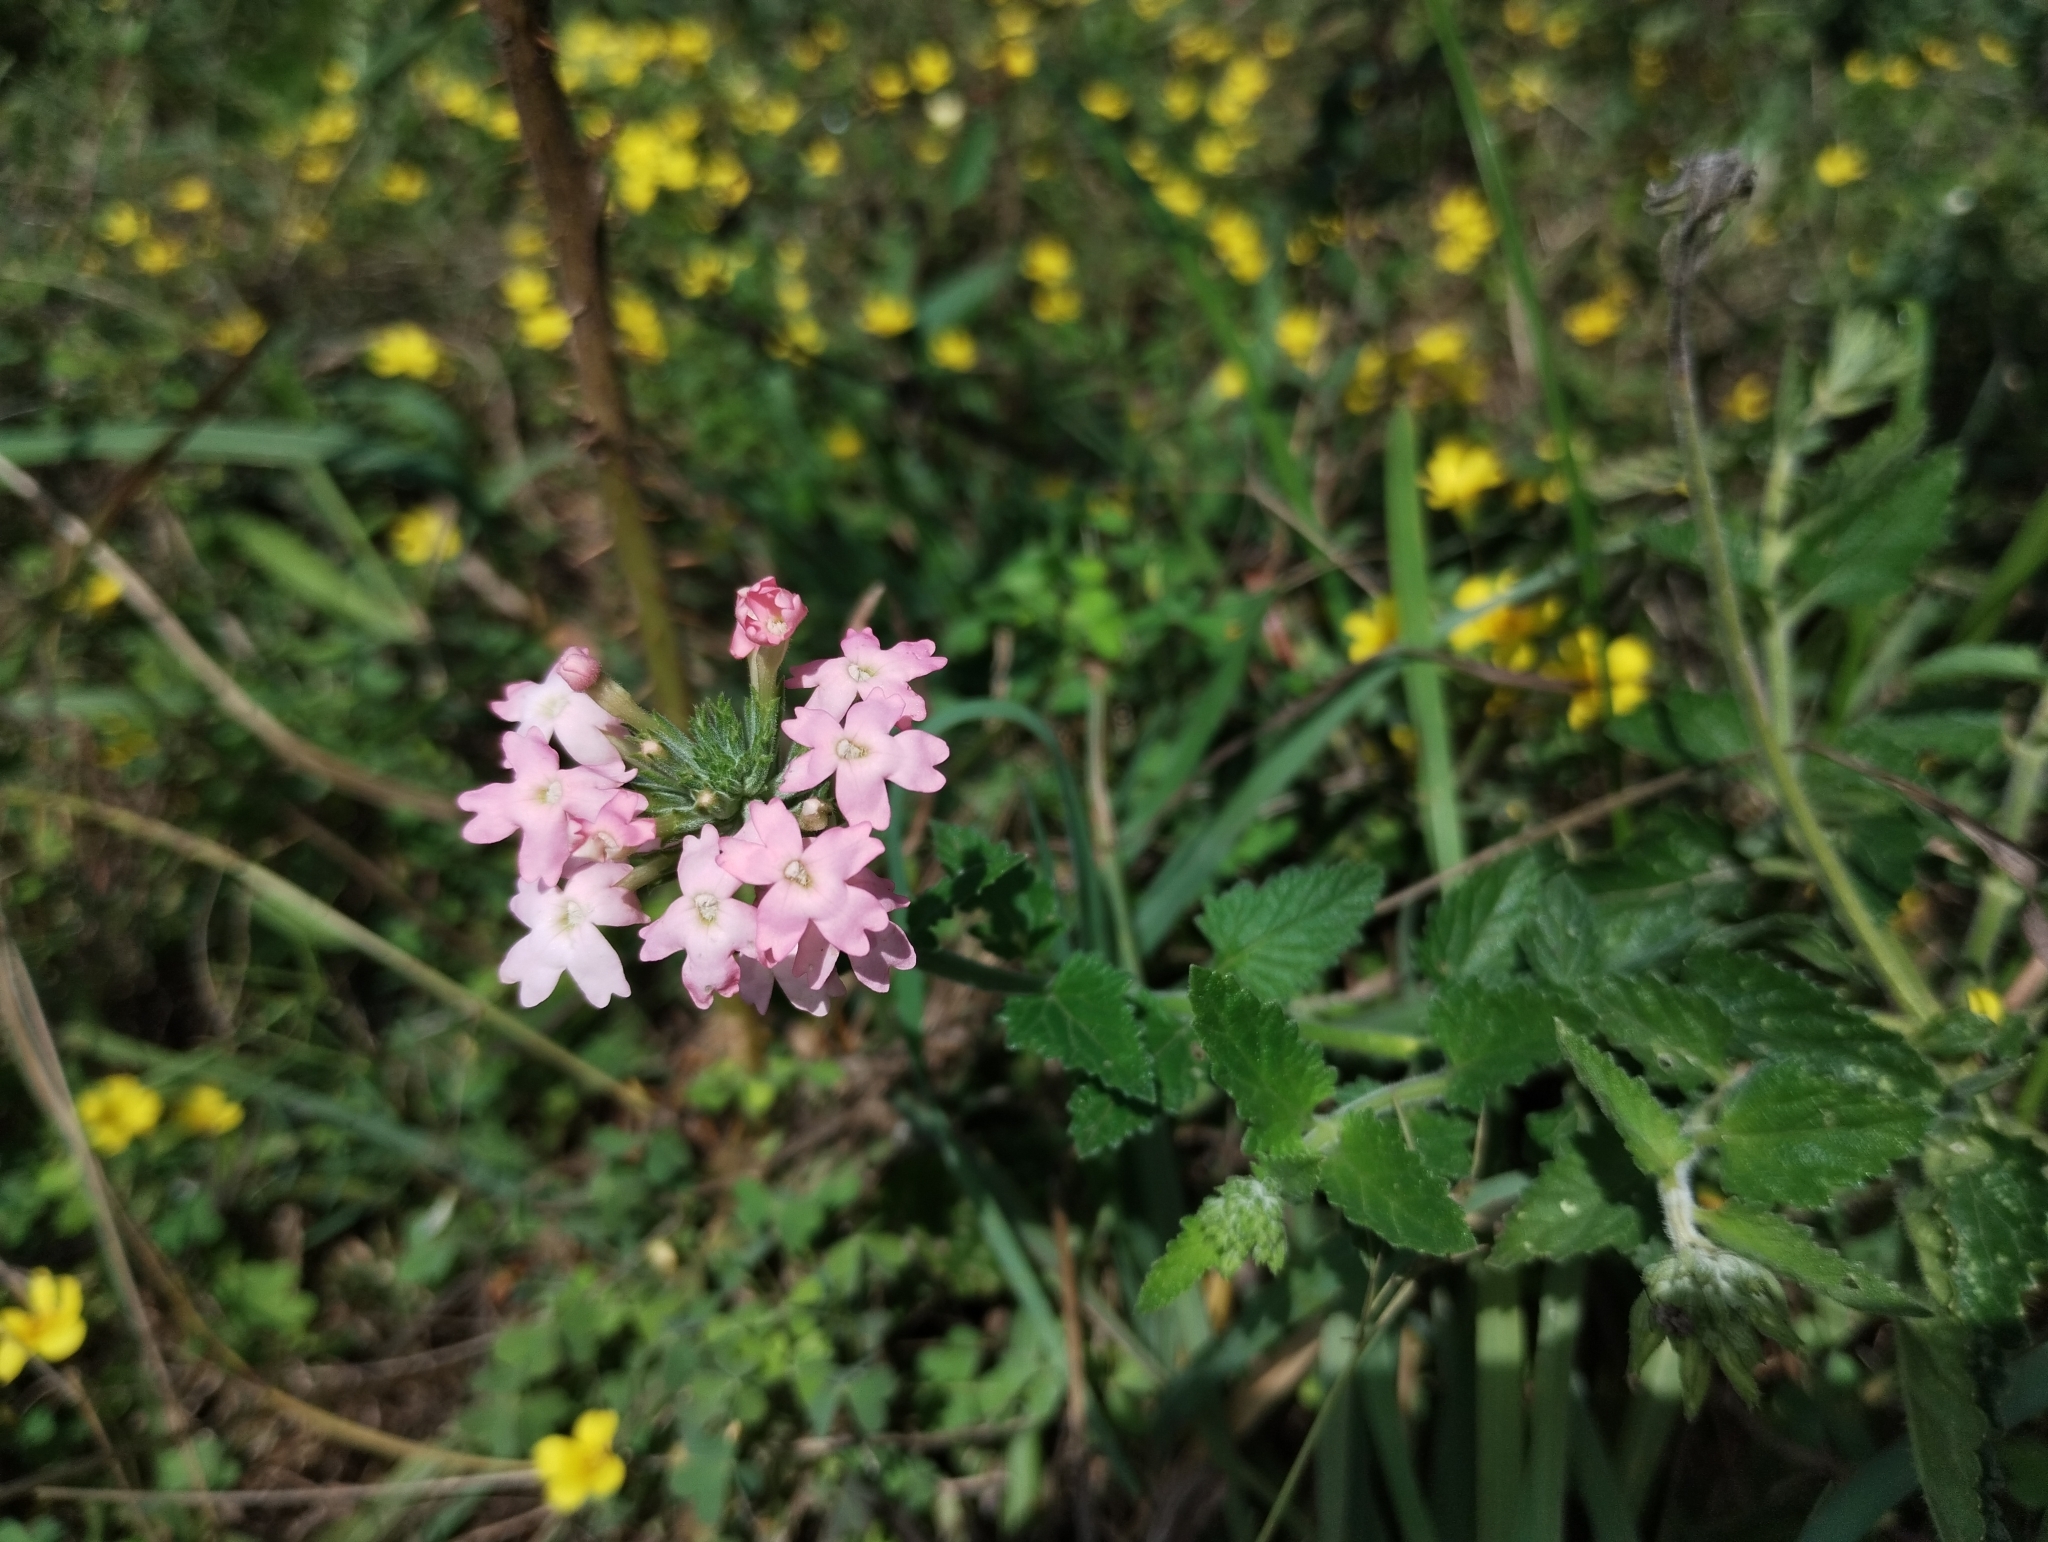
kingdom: Plantae
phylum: Tracheophyta
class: Magnoliopsida
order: Lamiales
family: Verbenaceae
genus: Verbena
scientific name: Verbena tweedieana
